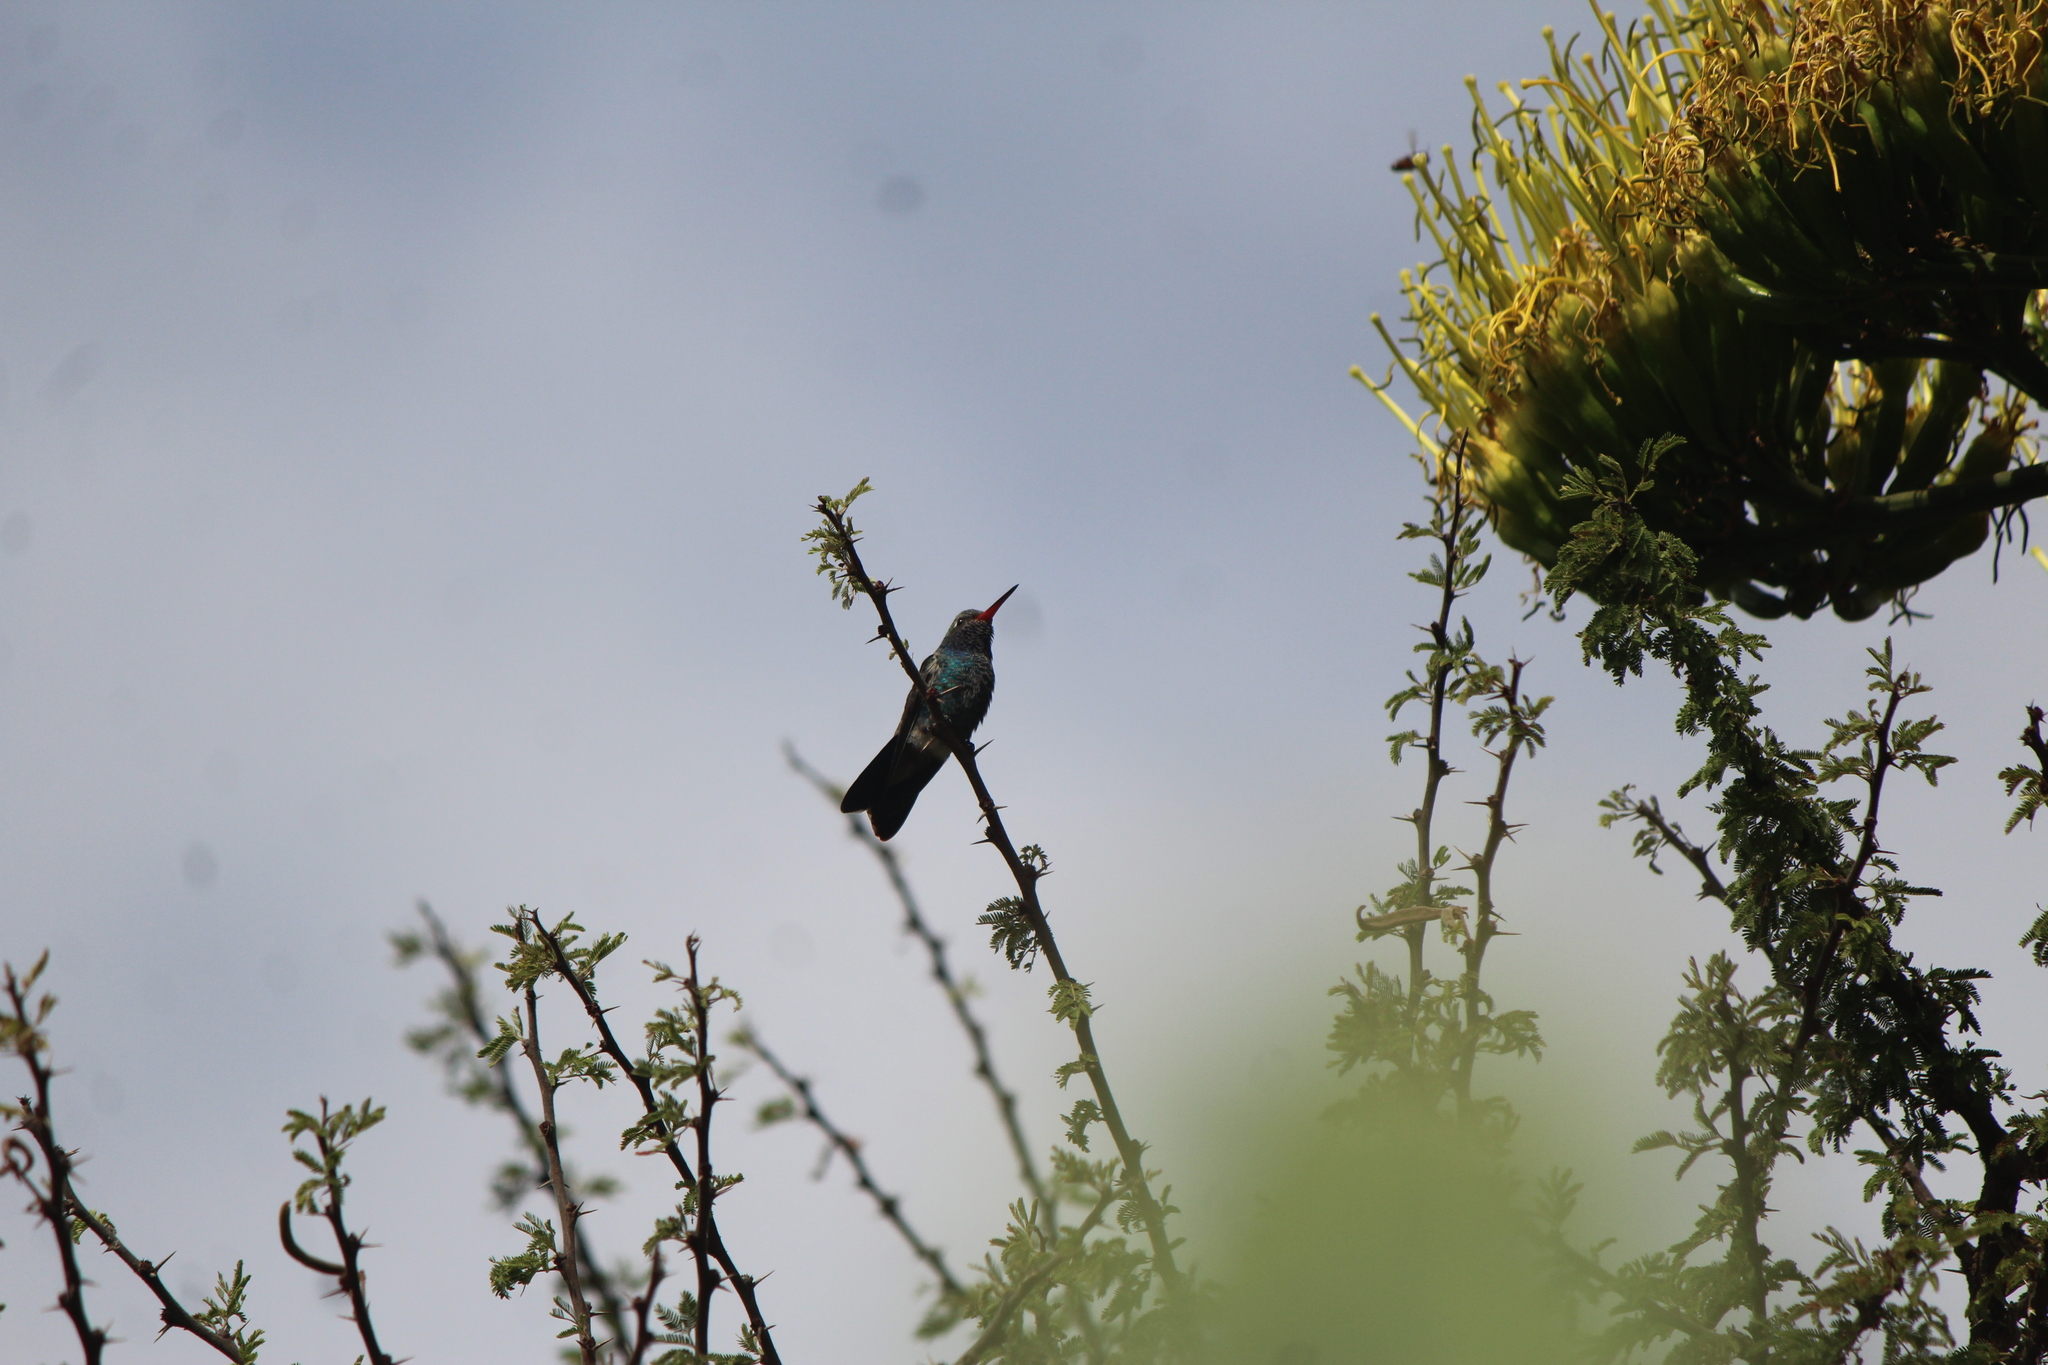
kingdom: Animalia
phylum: Chordata
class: Aves
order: Apodiformes
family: Trochilidae
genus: Cynanthus
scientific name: Cynanthus latirostris
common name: Broad-billed hummingbird
